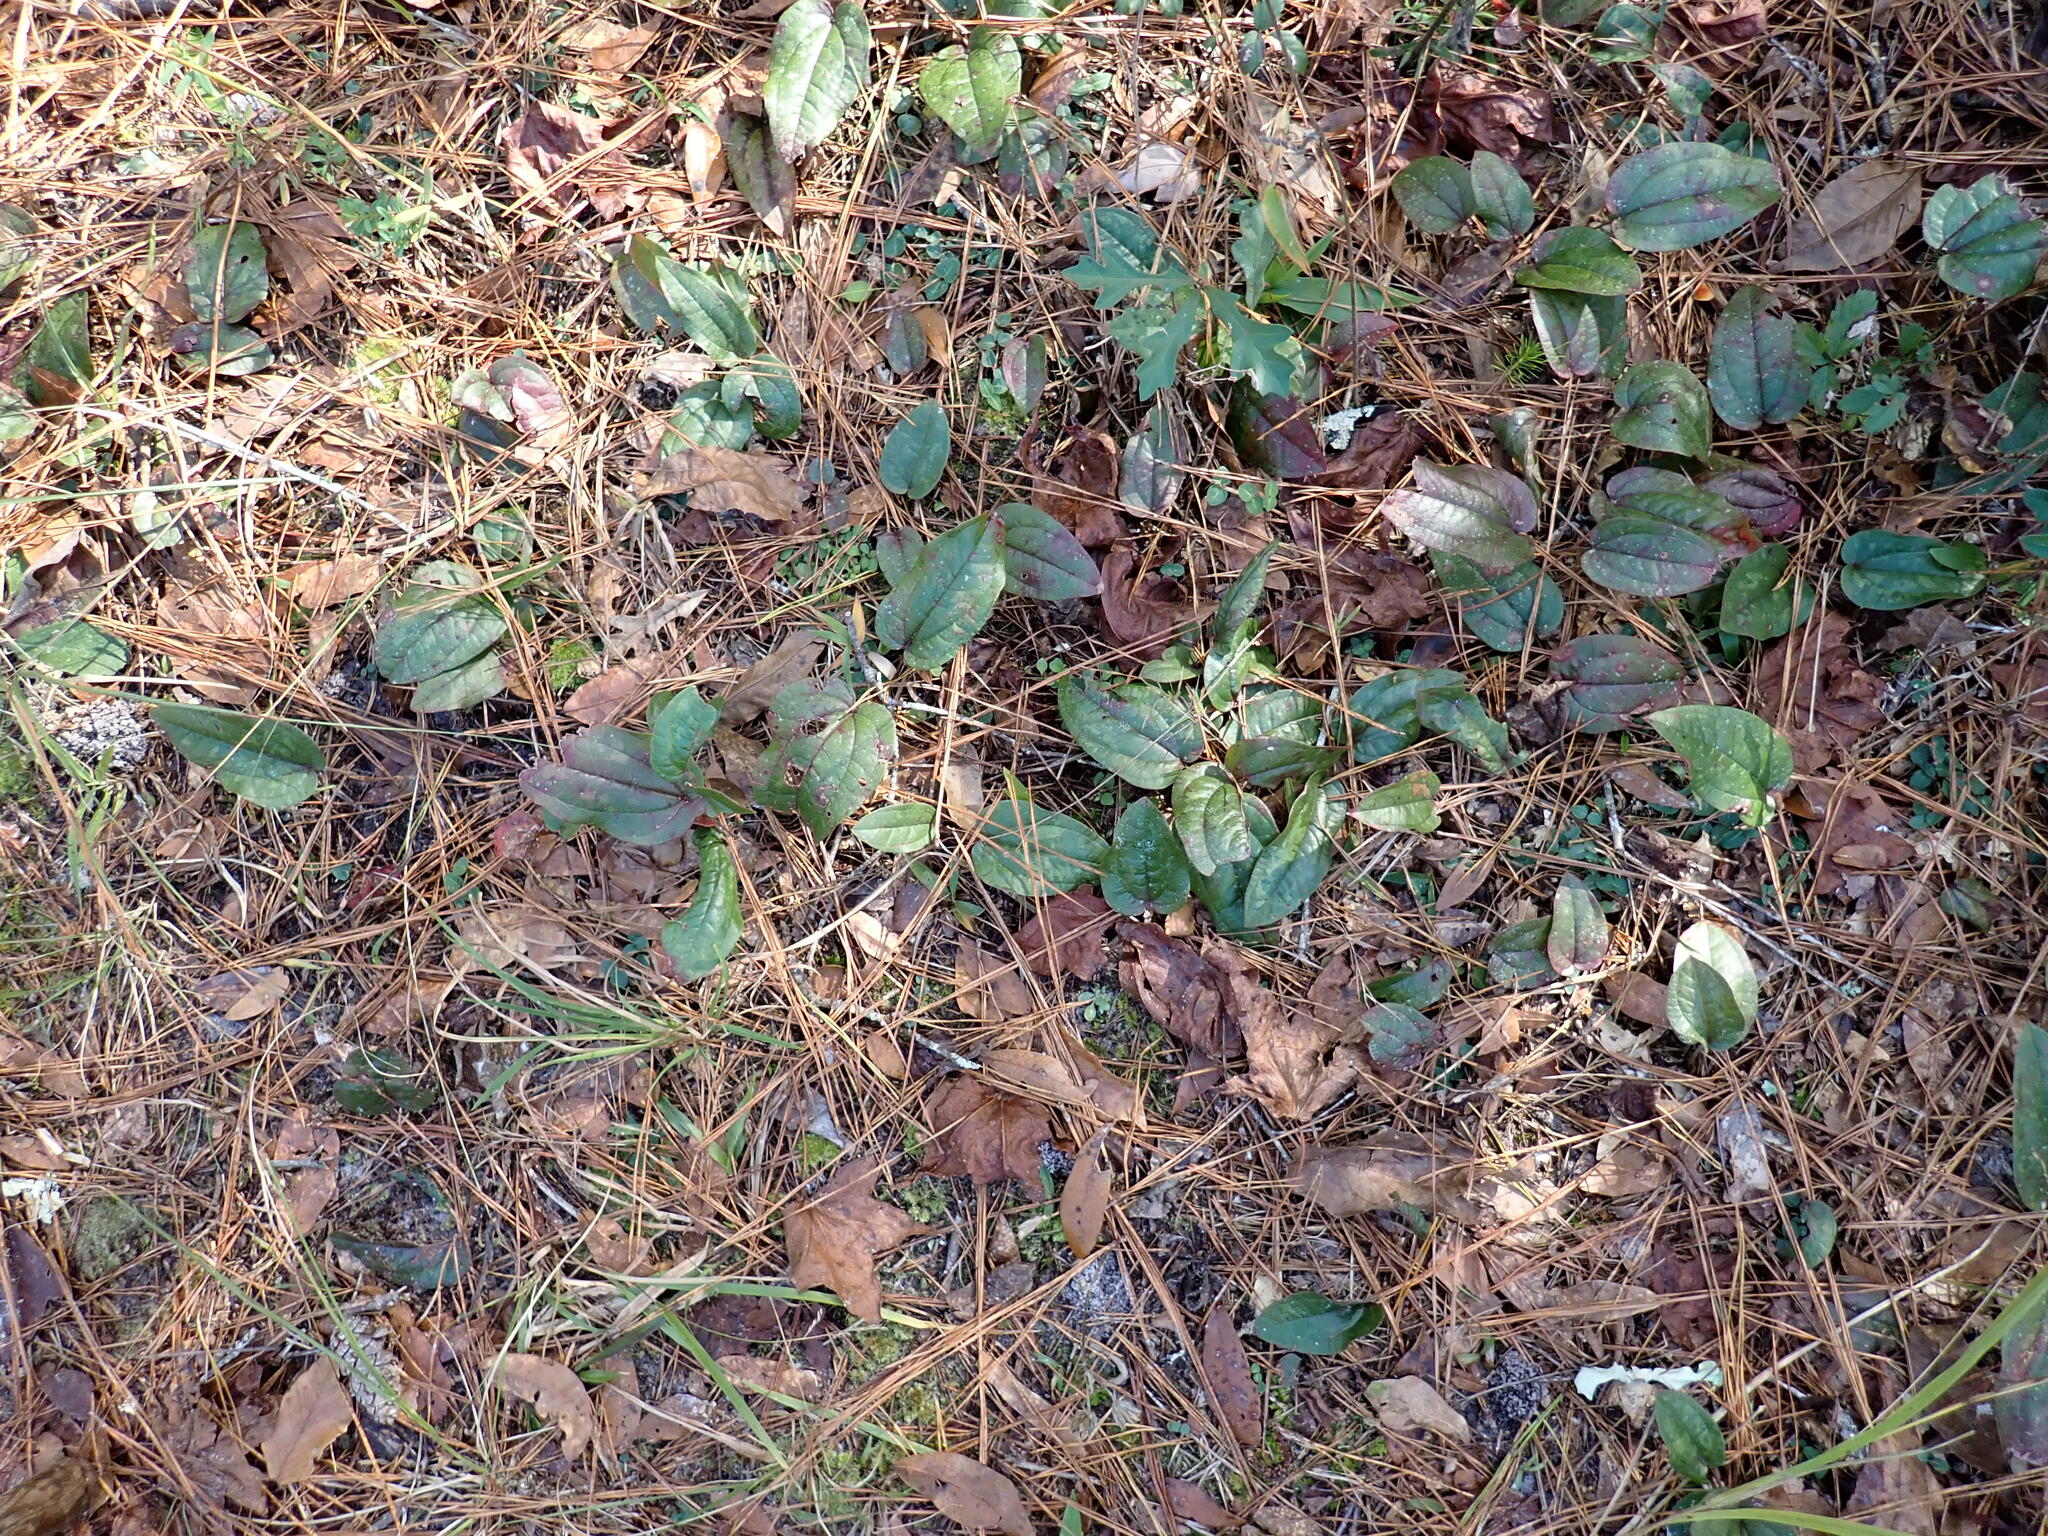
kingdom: Plantae
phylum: Tracheophyta
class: Liliopsida
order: Liliales
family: Smilacaceae
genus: Smilax
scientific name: Smilax pumila
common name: Sarsaparilla-vine
